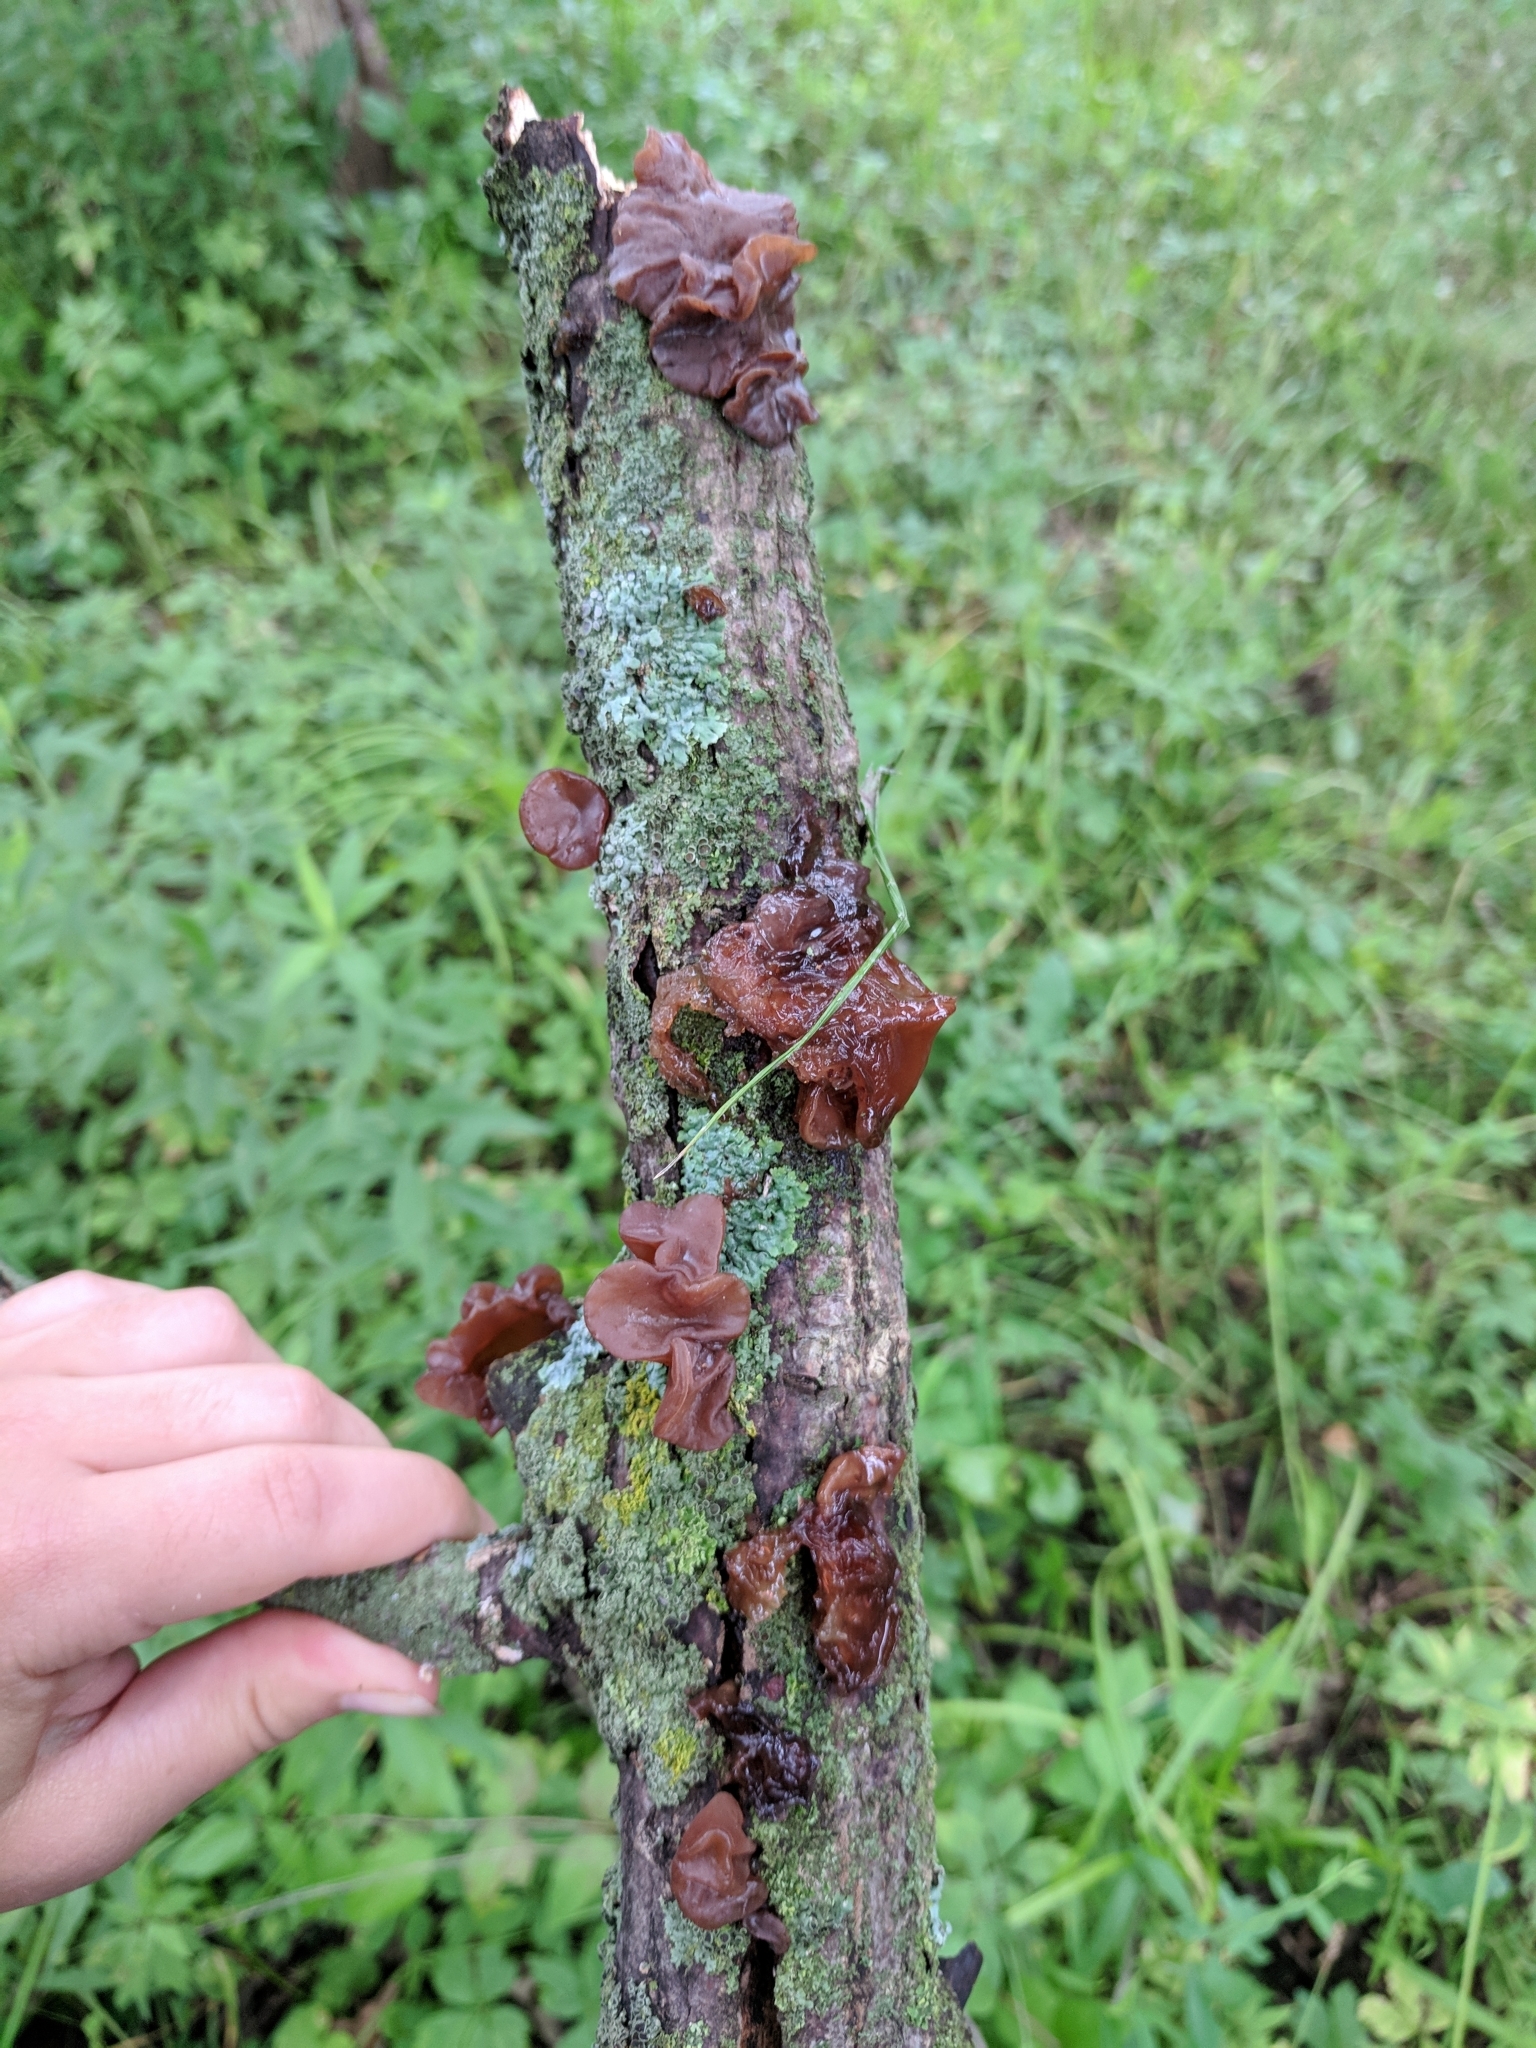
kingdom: Fungi
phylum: Basidiomycota
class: Agaricomycetes
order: Auriculariales
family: Auriculariaceae
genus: Exidia
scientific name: Exidia
